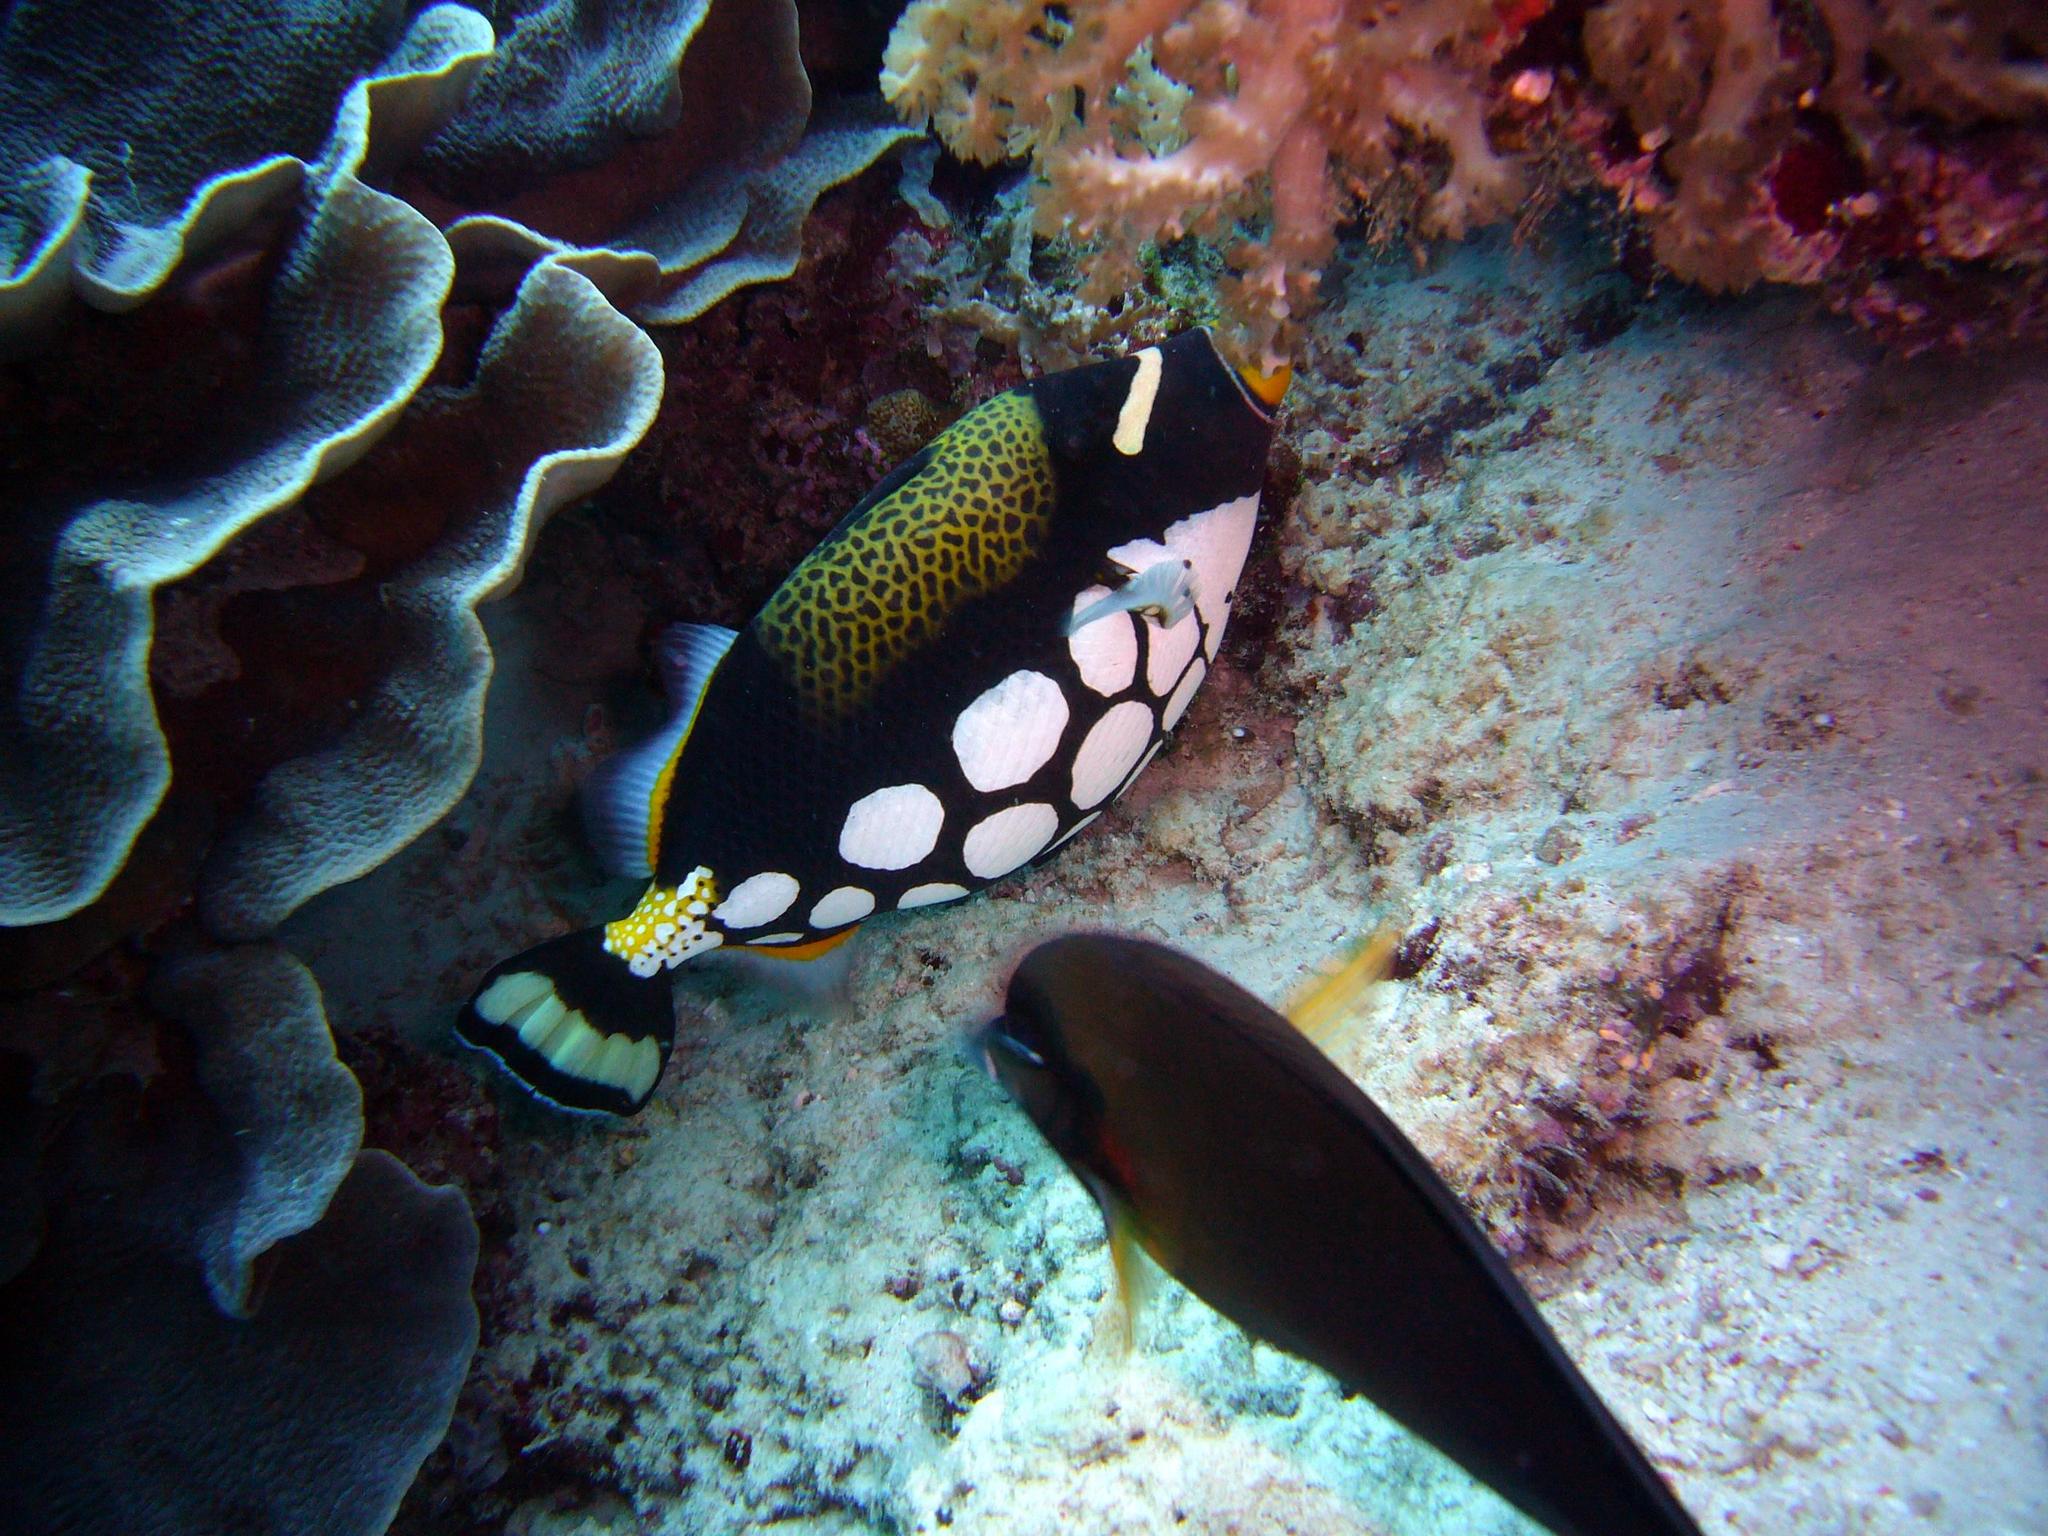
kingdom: Animalia
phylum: Chordata
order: Tetraodontiformes
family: Balistidae
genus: Balistoides
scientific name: Balistoides conspicillum
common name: Clown triggerfish
